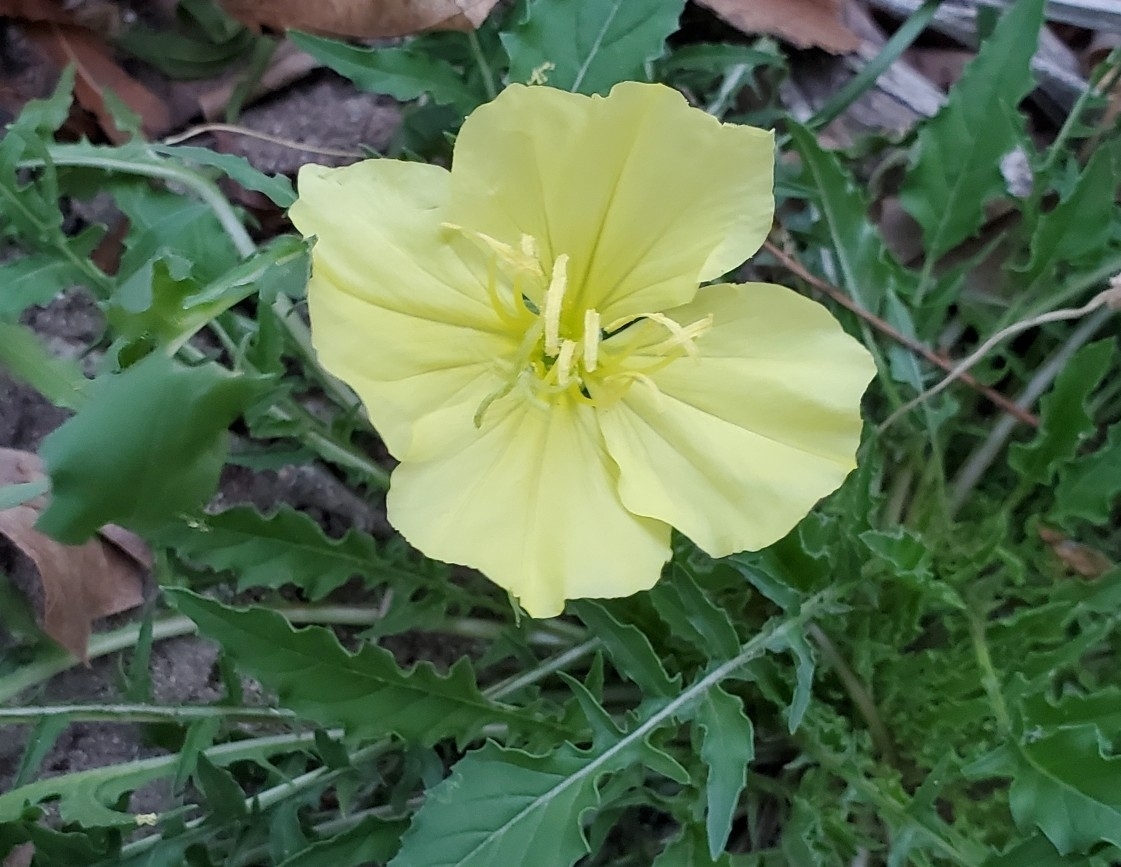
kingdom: Plantae
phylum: Tracheophyta
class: Magnoliopsida
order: Myrtales
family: Onagraceae
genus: Oenothera
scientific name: Oenothera triloba
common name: Sessile evening-primrose
